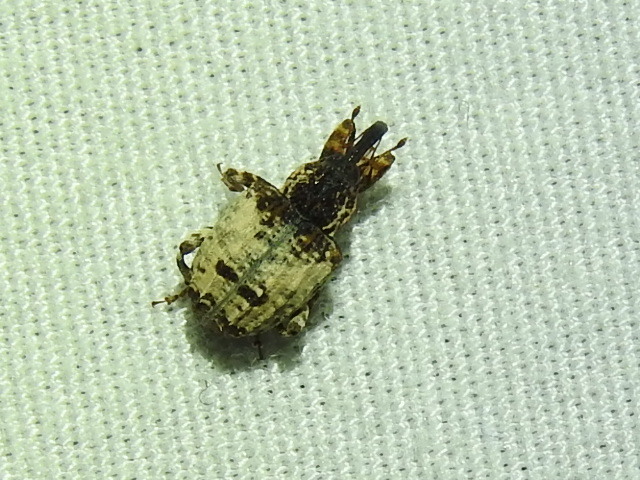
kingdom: Animalia
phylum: Arthropoda
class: Insecta
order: Coleoptera
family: Curculionidae
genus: Conotrachelus
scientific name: Conotrachelus leucophaeatus
